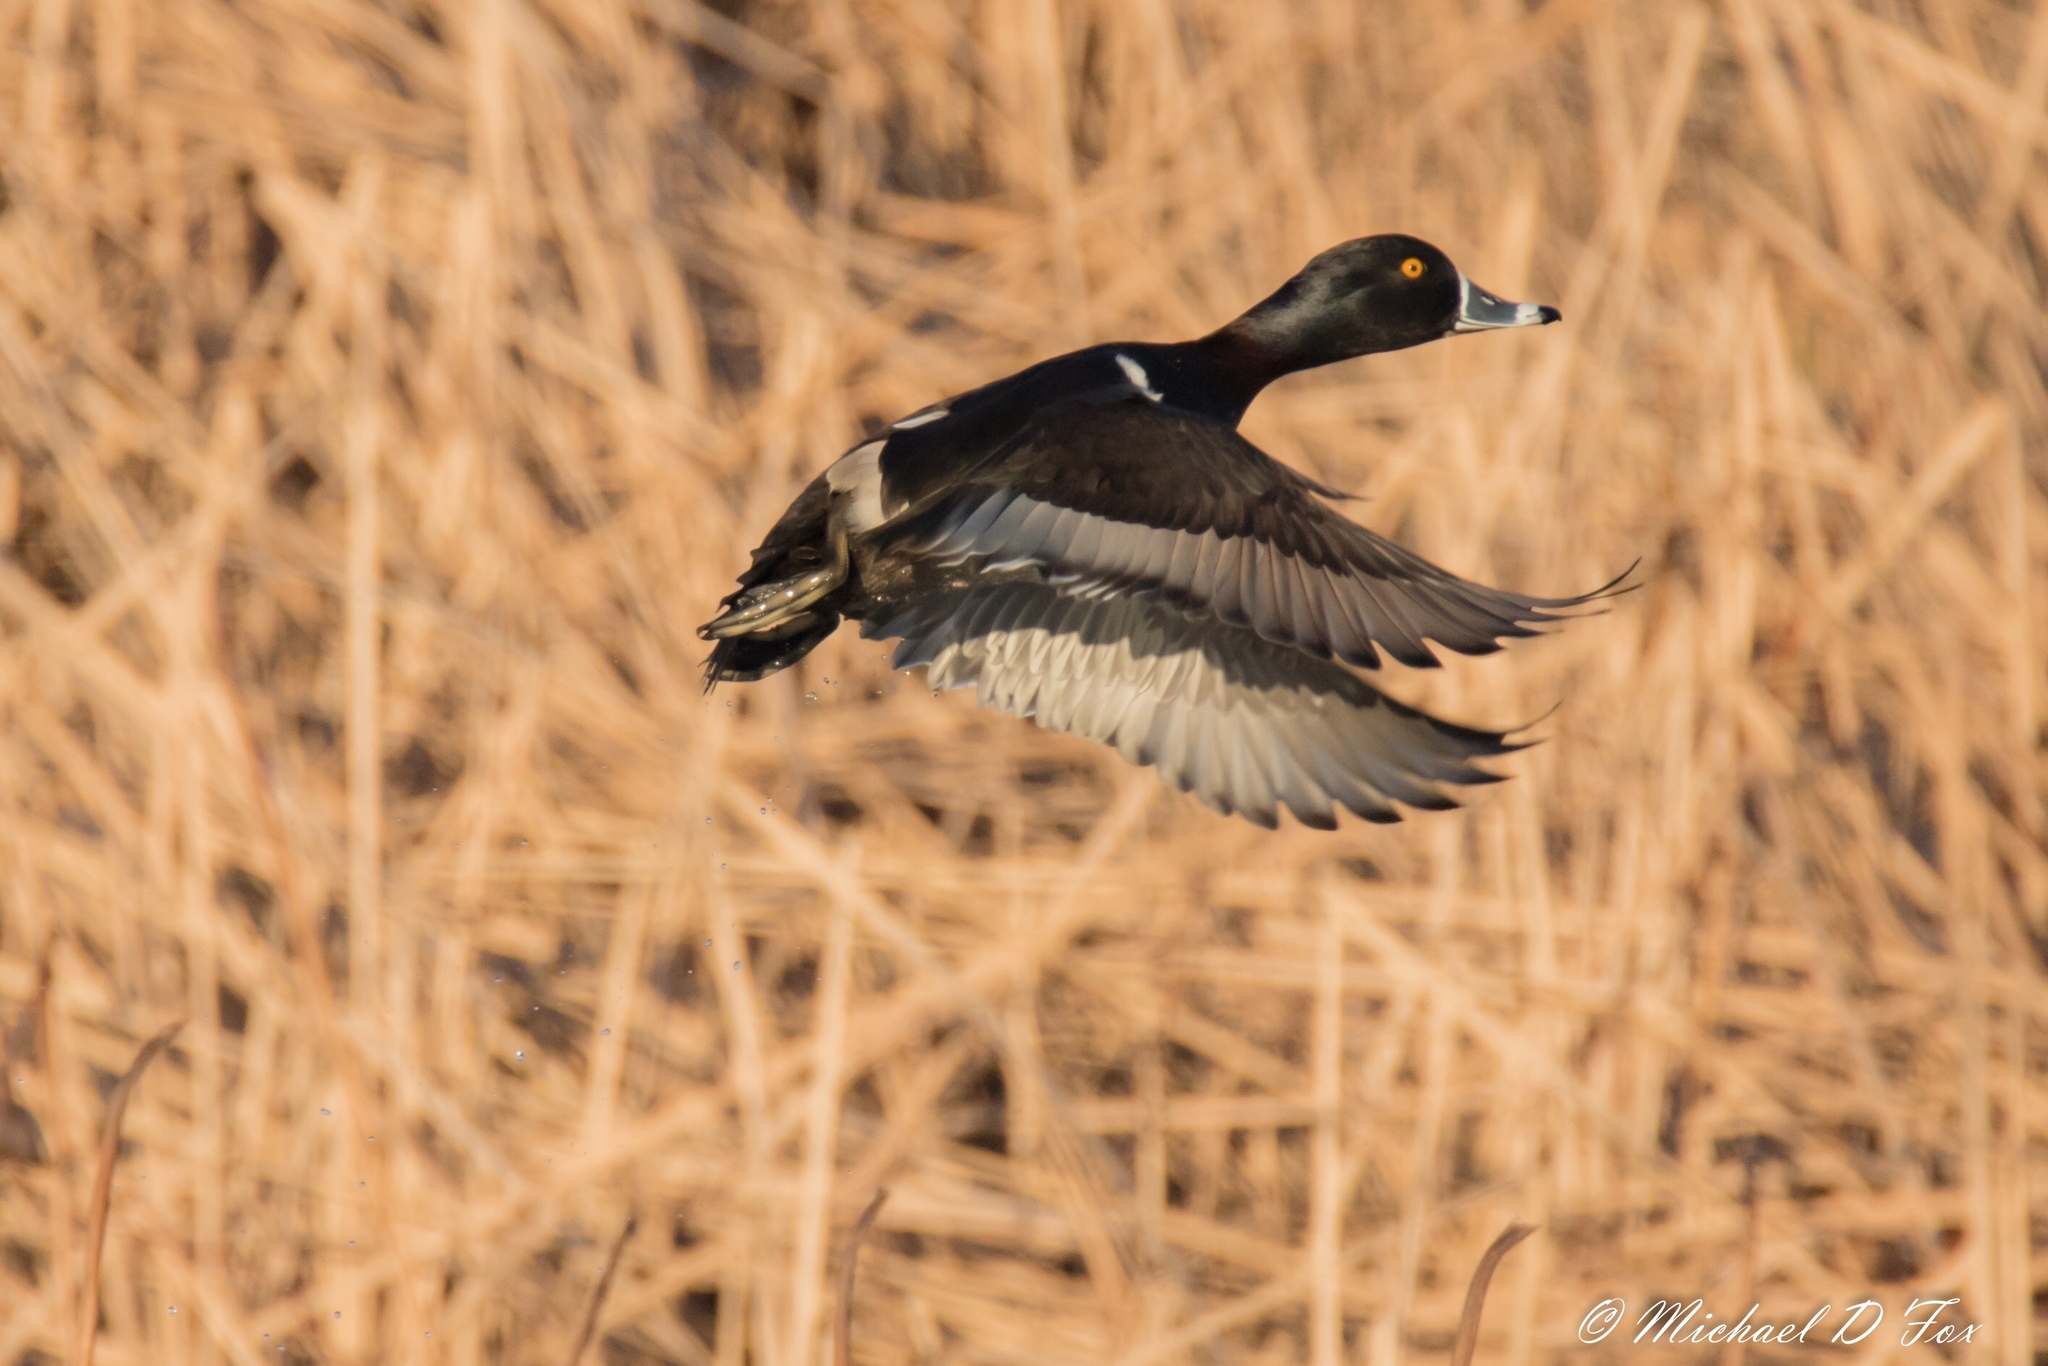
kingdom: Animalia
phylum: Chordata
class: Aves
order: Anseriformes
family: Anatidae
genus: Aythya
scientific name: Aythya collaris
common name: Ring-necked duck
